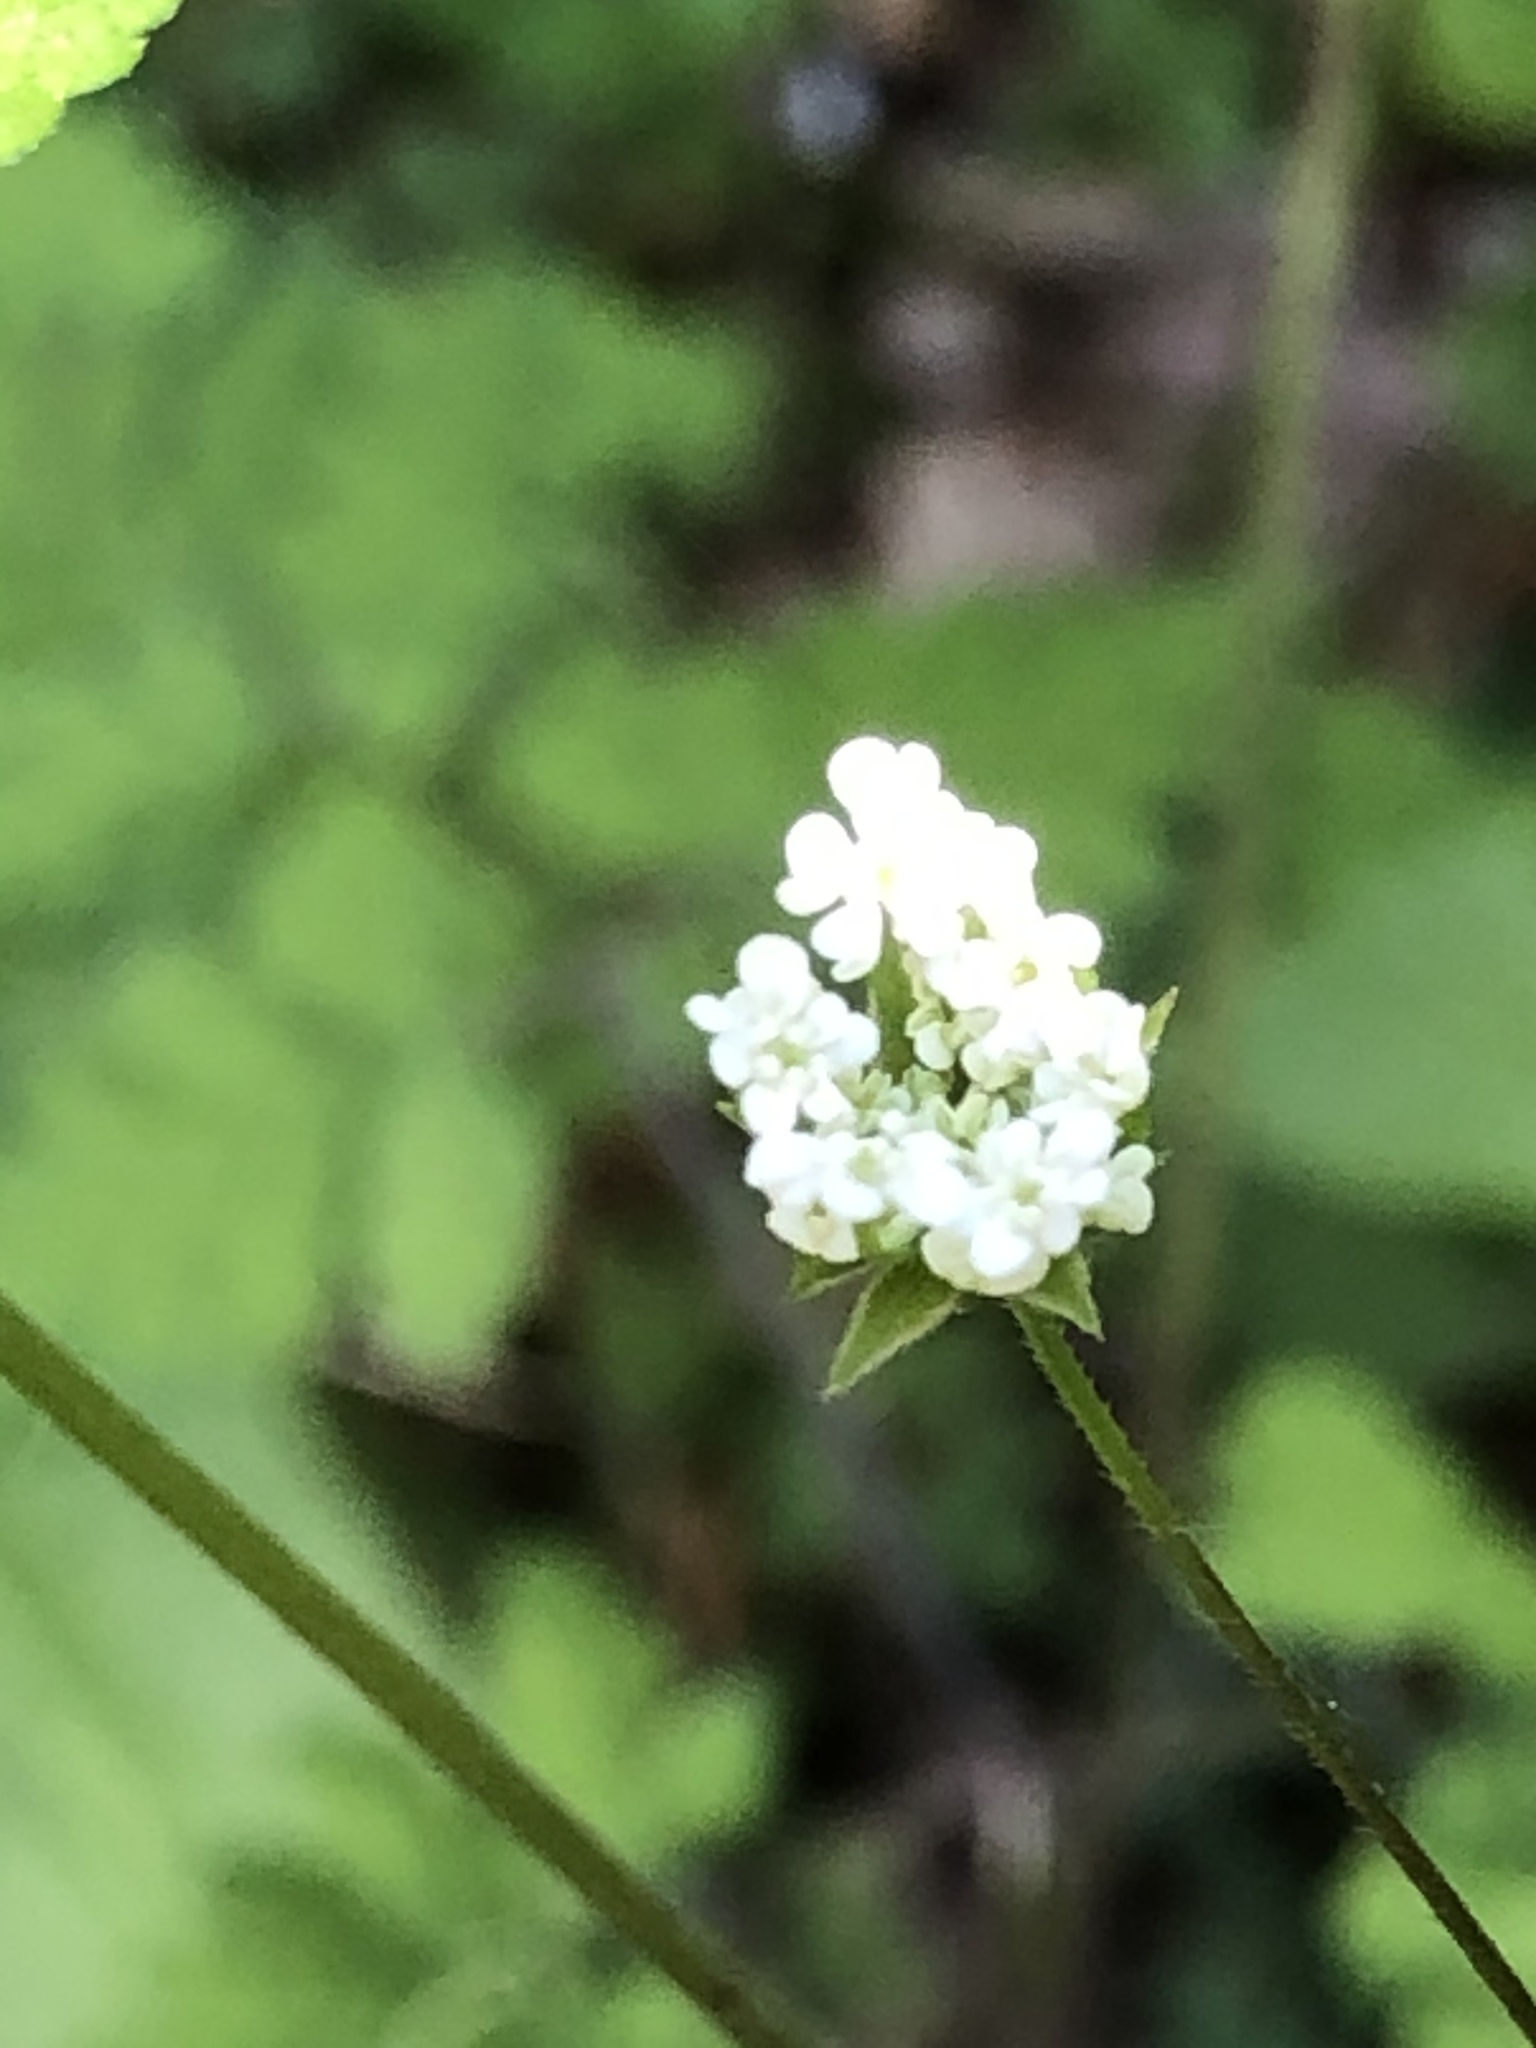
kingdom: Plantae
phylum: Tracheophyta
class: Magnoliopsida
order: Apiales
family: Apiaceae
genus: Chaerophyllum
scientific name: Chaerophyllum temulum
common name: Rough chervil
